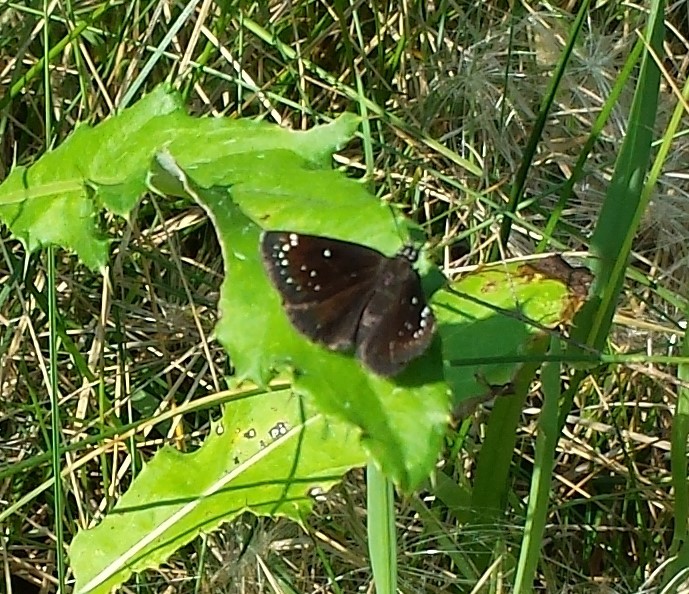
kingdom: Animalia
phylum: Arthropoda
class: Insecta
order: Lepidoptera
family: Hesperiidae
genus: Pholisora
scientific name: Pholisora catullus
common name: Common sootywing
